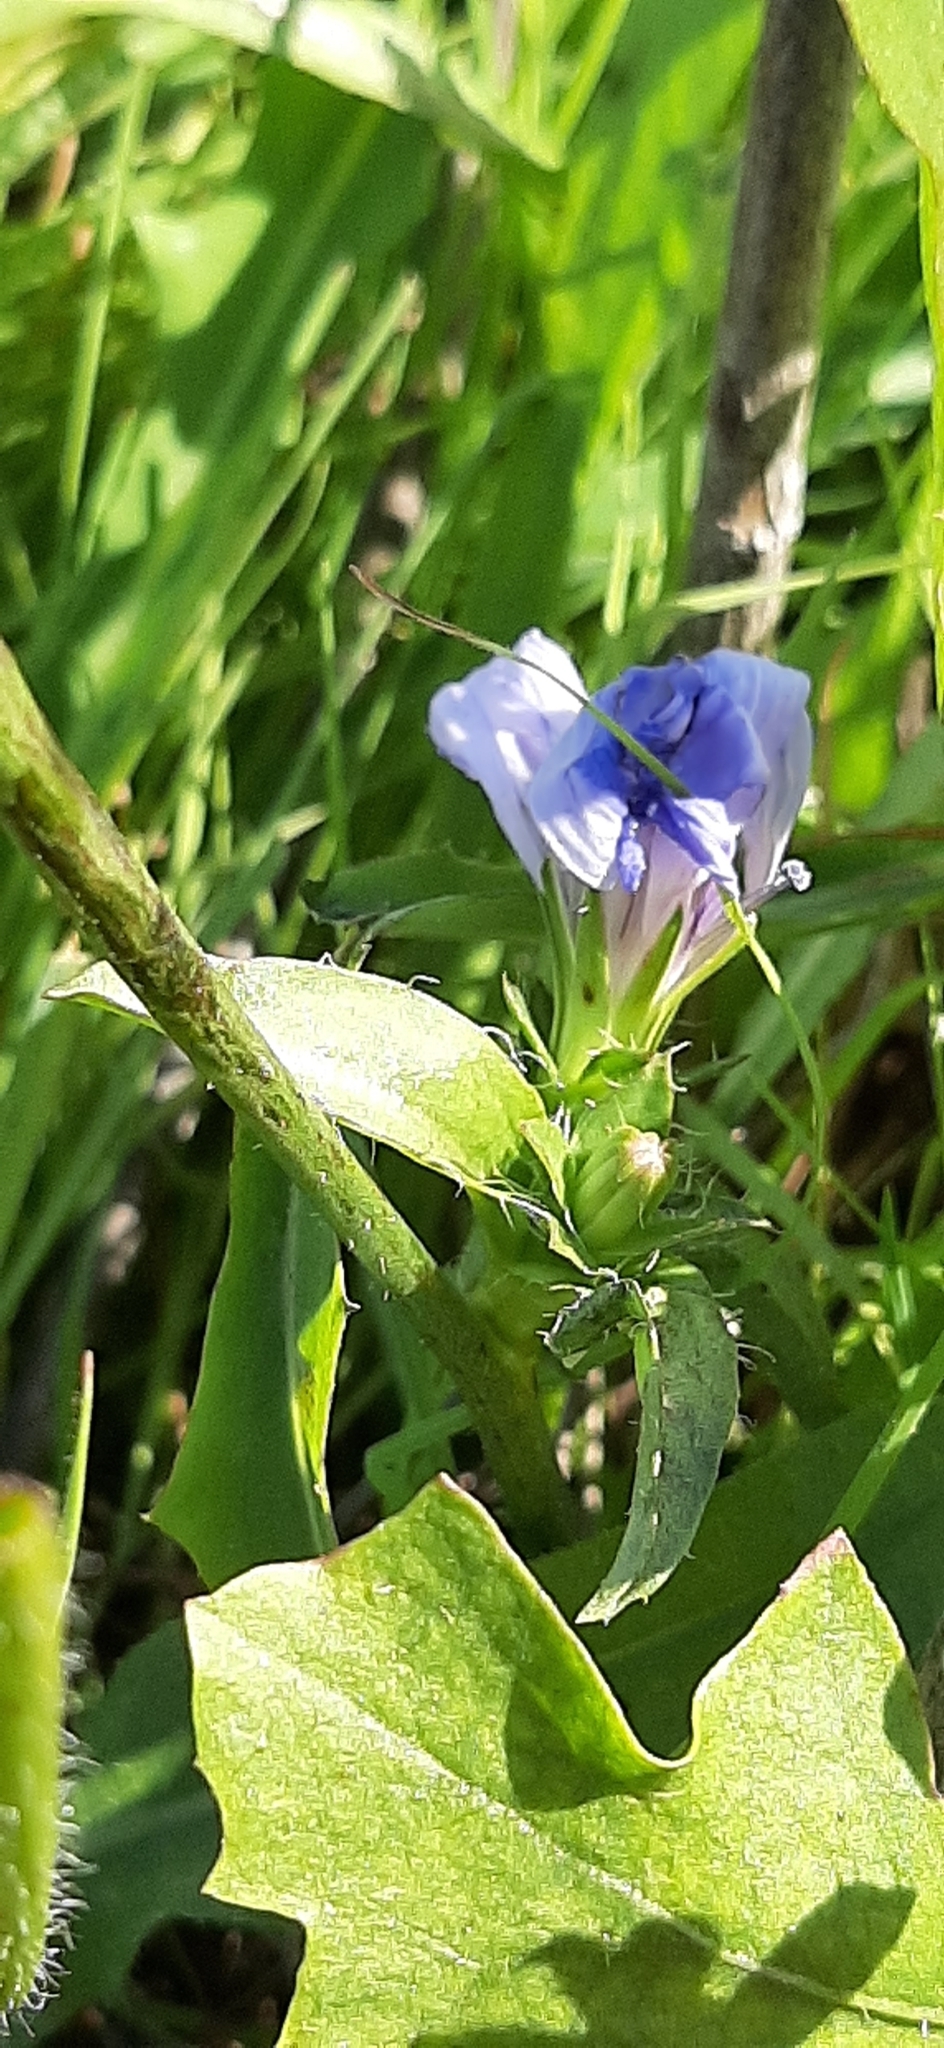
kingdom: Plantae
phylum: Tracheophyta
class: Magnoliopsida
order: Asterales
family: Asteraceae
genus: Cichorium
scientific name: Cichorium intybus
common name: Chicory
